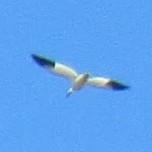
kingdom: Animalia
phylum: Chordata
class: Aves
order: Anseriformes
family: Anatidae
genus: Anser
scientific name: Anser caerulescens
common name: Snow goose
